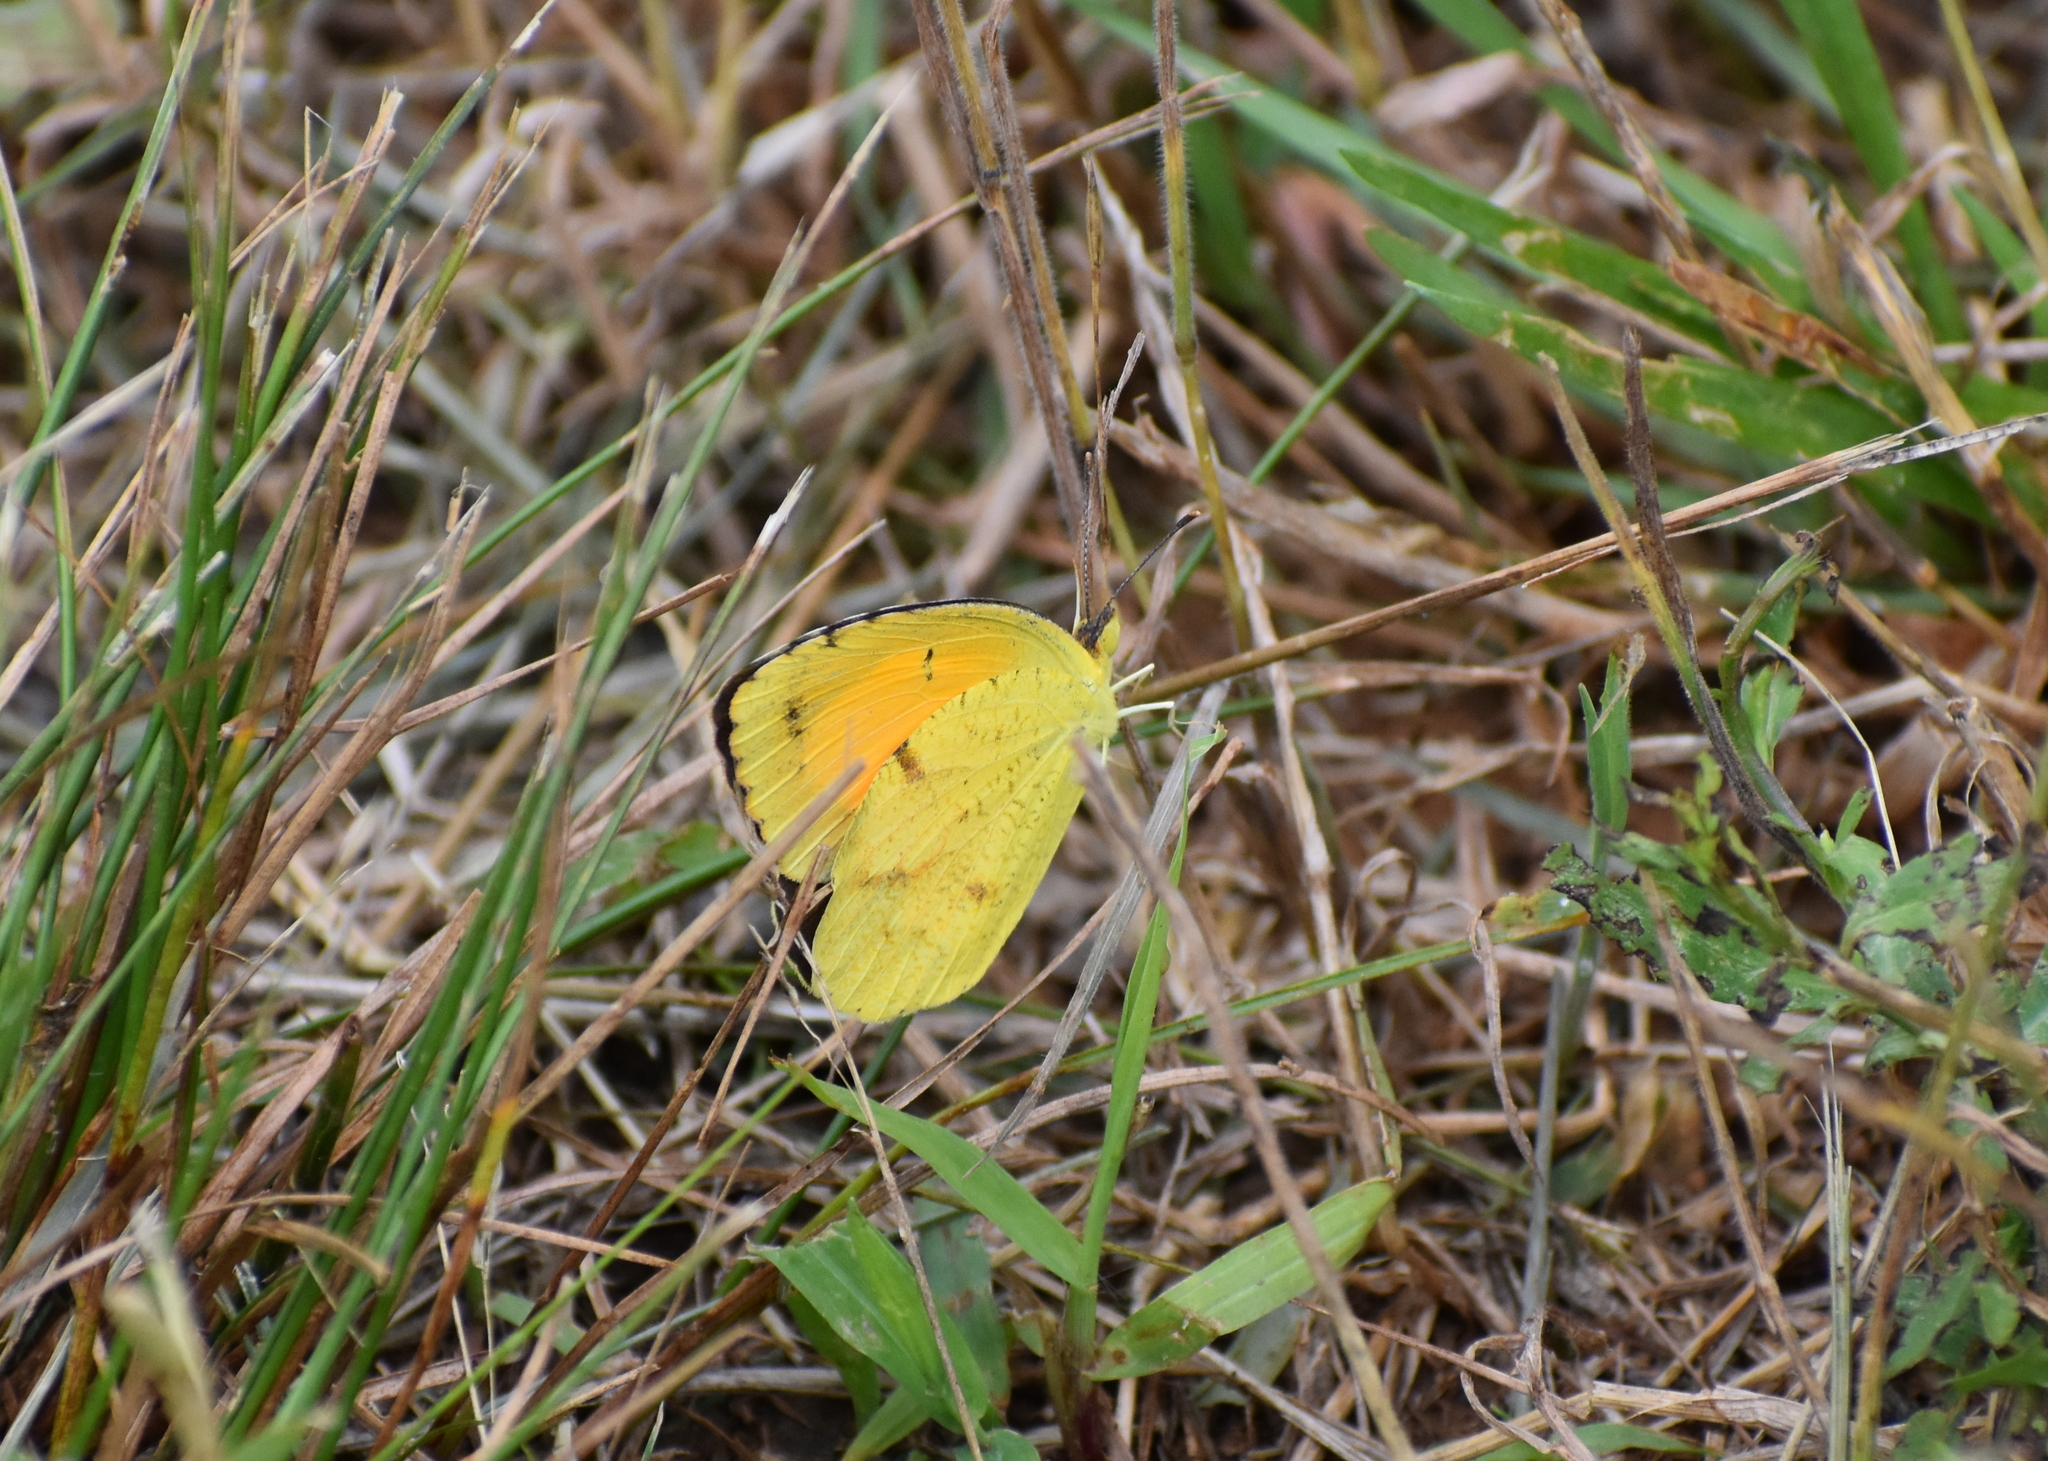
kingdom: Animalia
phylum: Arthropoda
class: Insecta
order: Lepidoptera
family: Pieridae
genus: Abaeis
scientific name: Abaeis nicippe
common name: Sleepy orange
